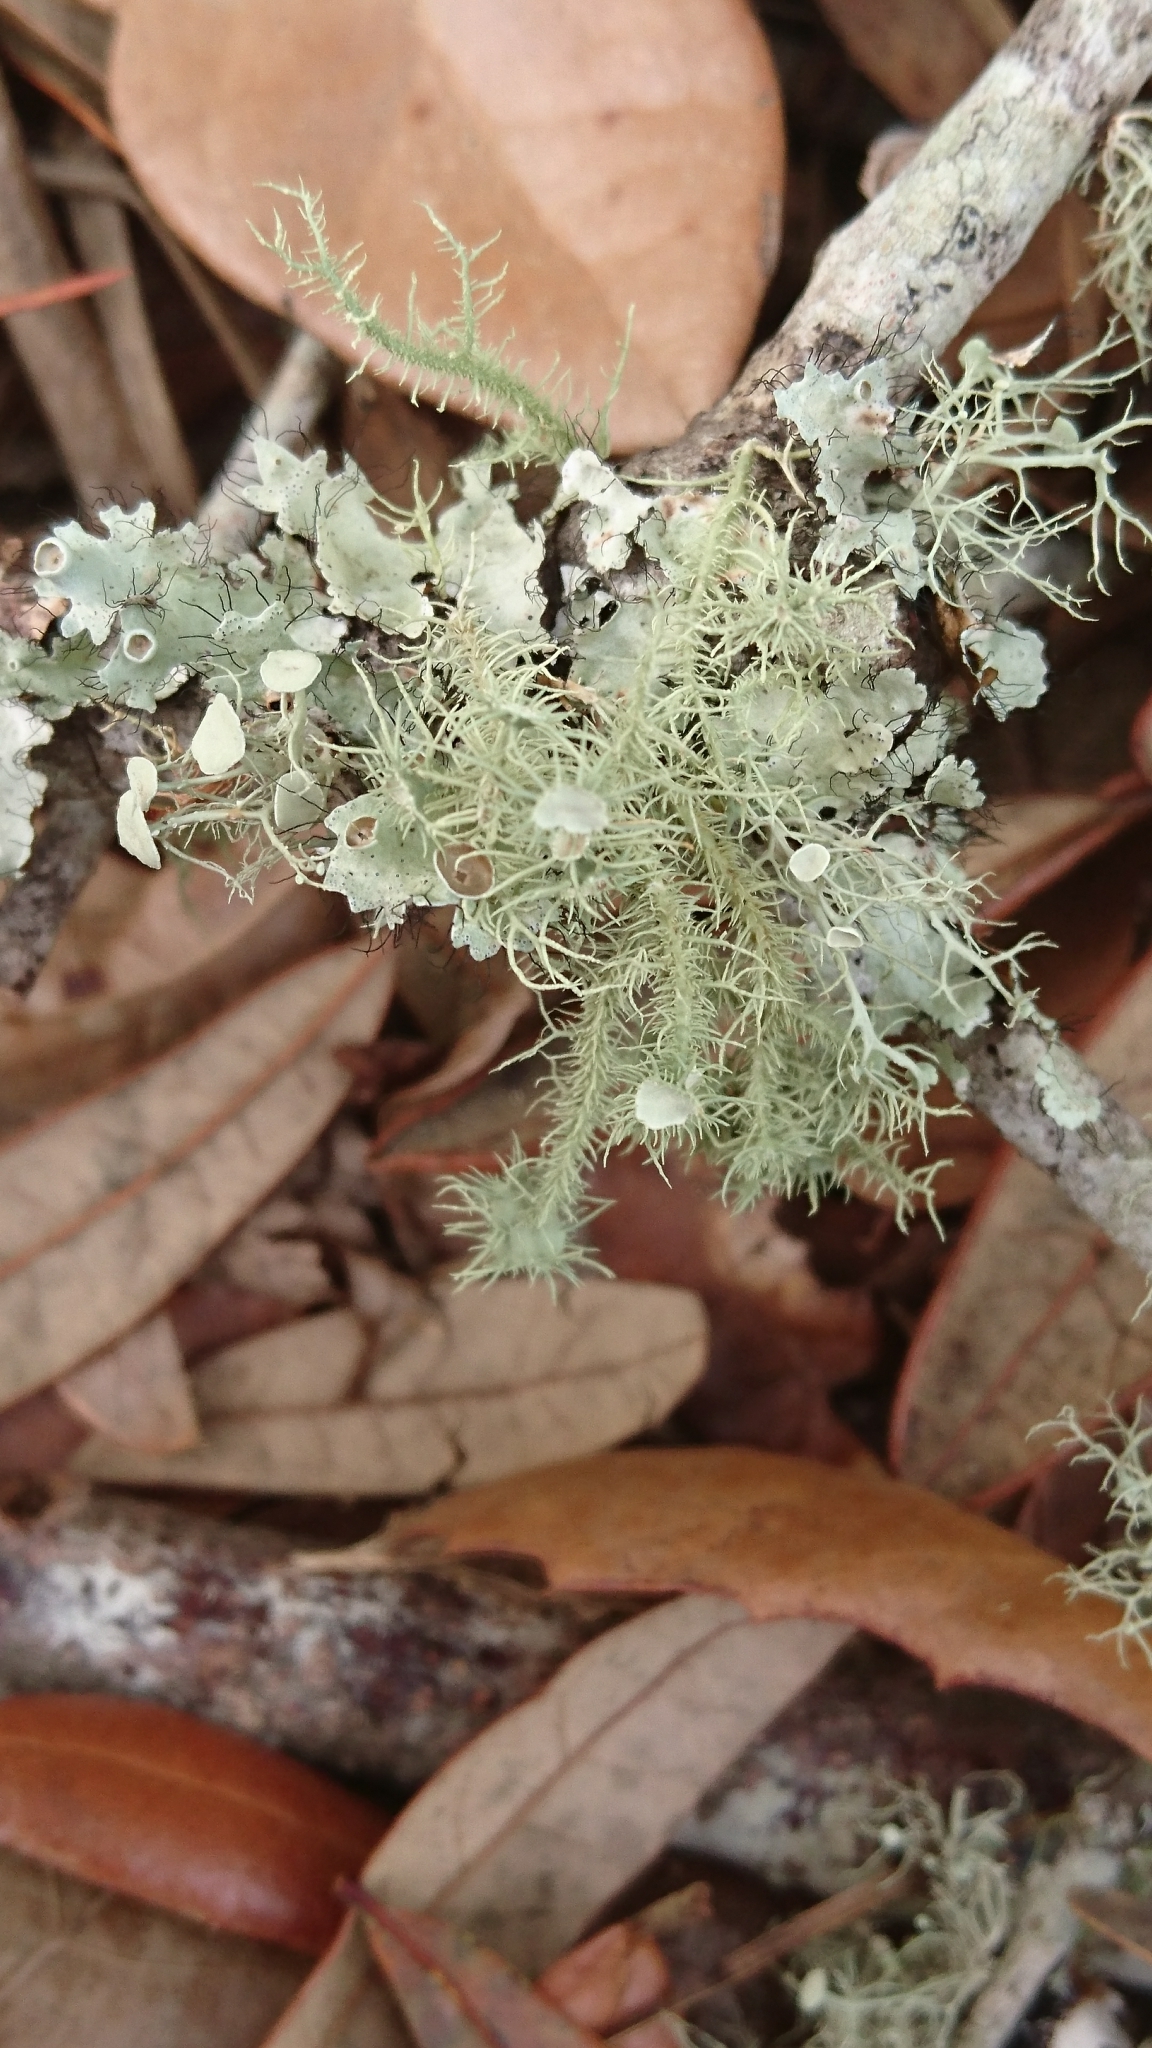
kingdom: Fungi
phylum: Ascomycota
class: Lecanoromycetes
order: Lecanorales
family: Parmeliaceae
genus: Usnea
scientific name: Usnea strigosa
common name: Bushy beard lichen
